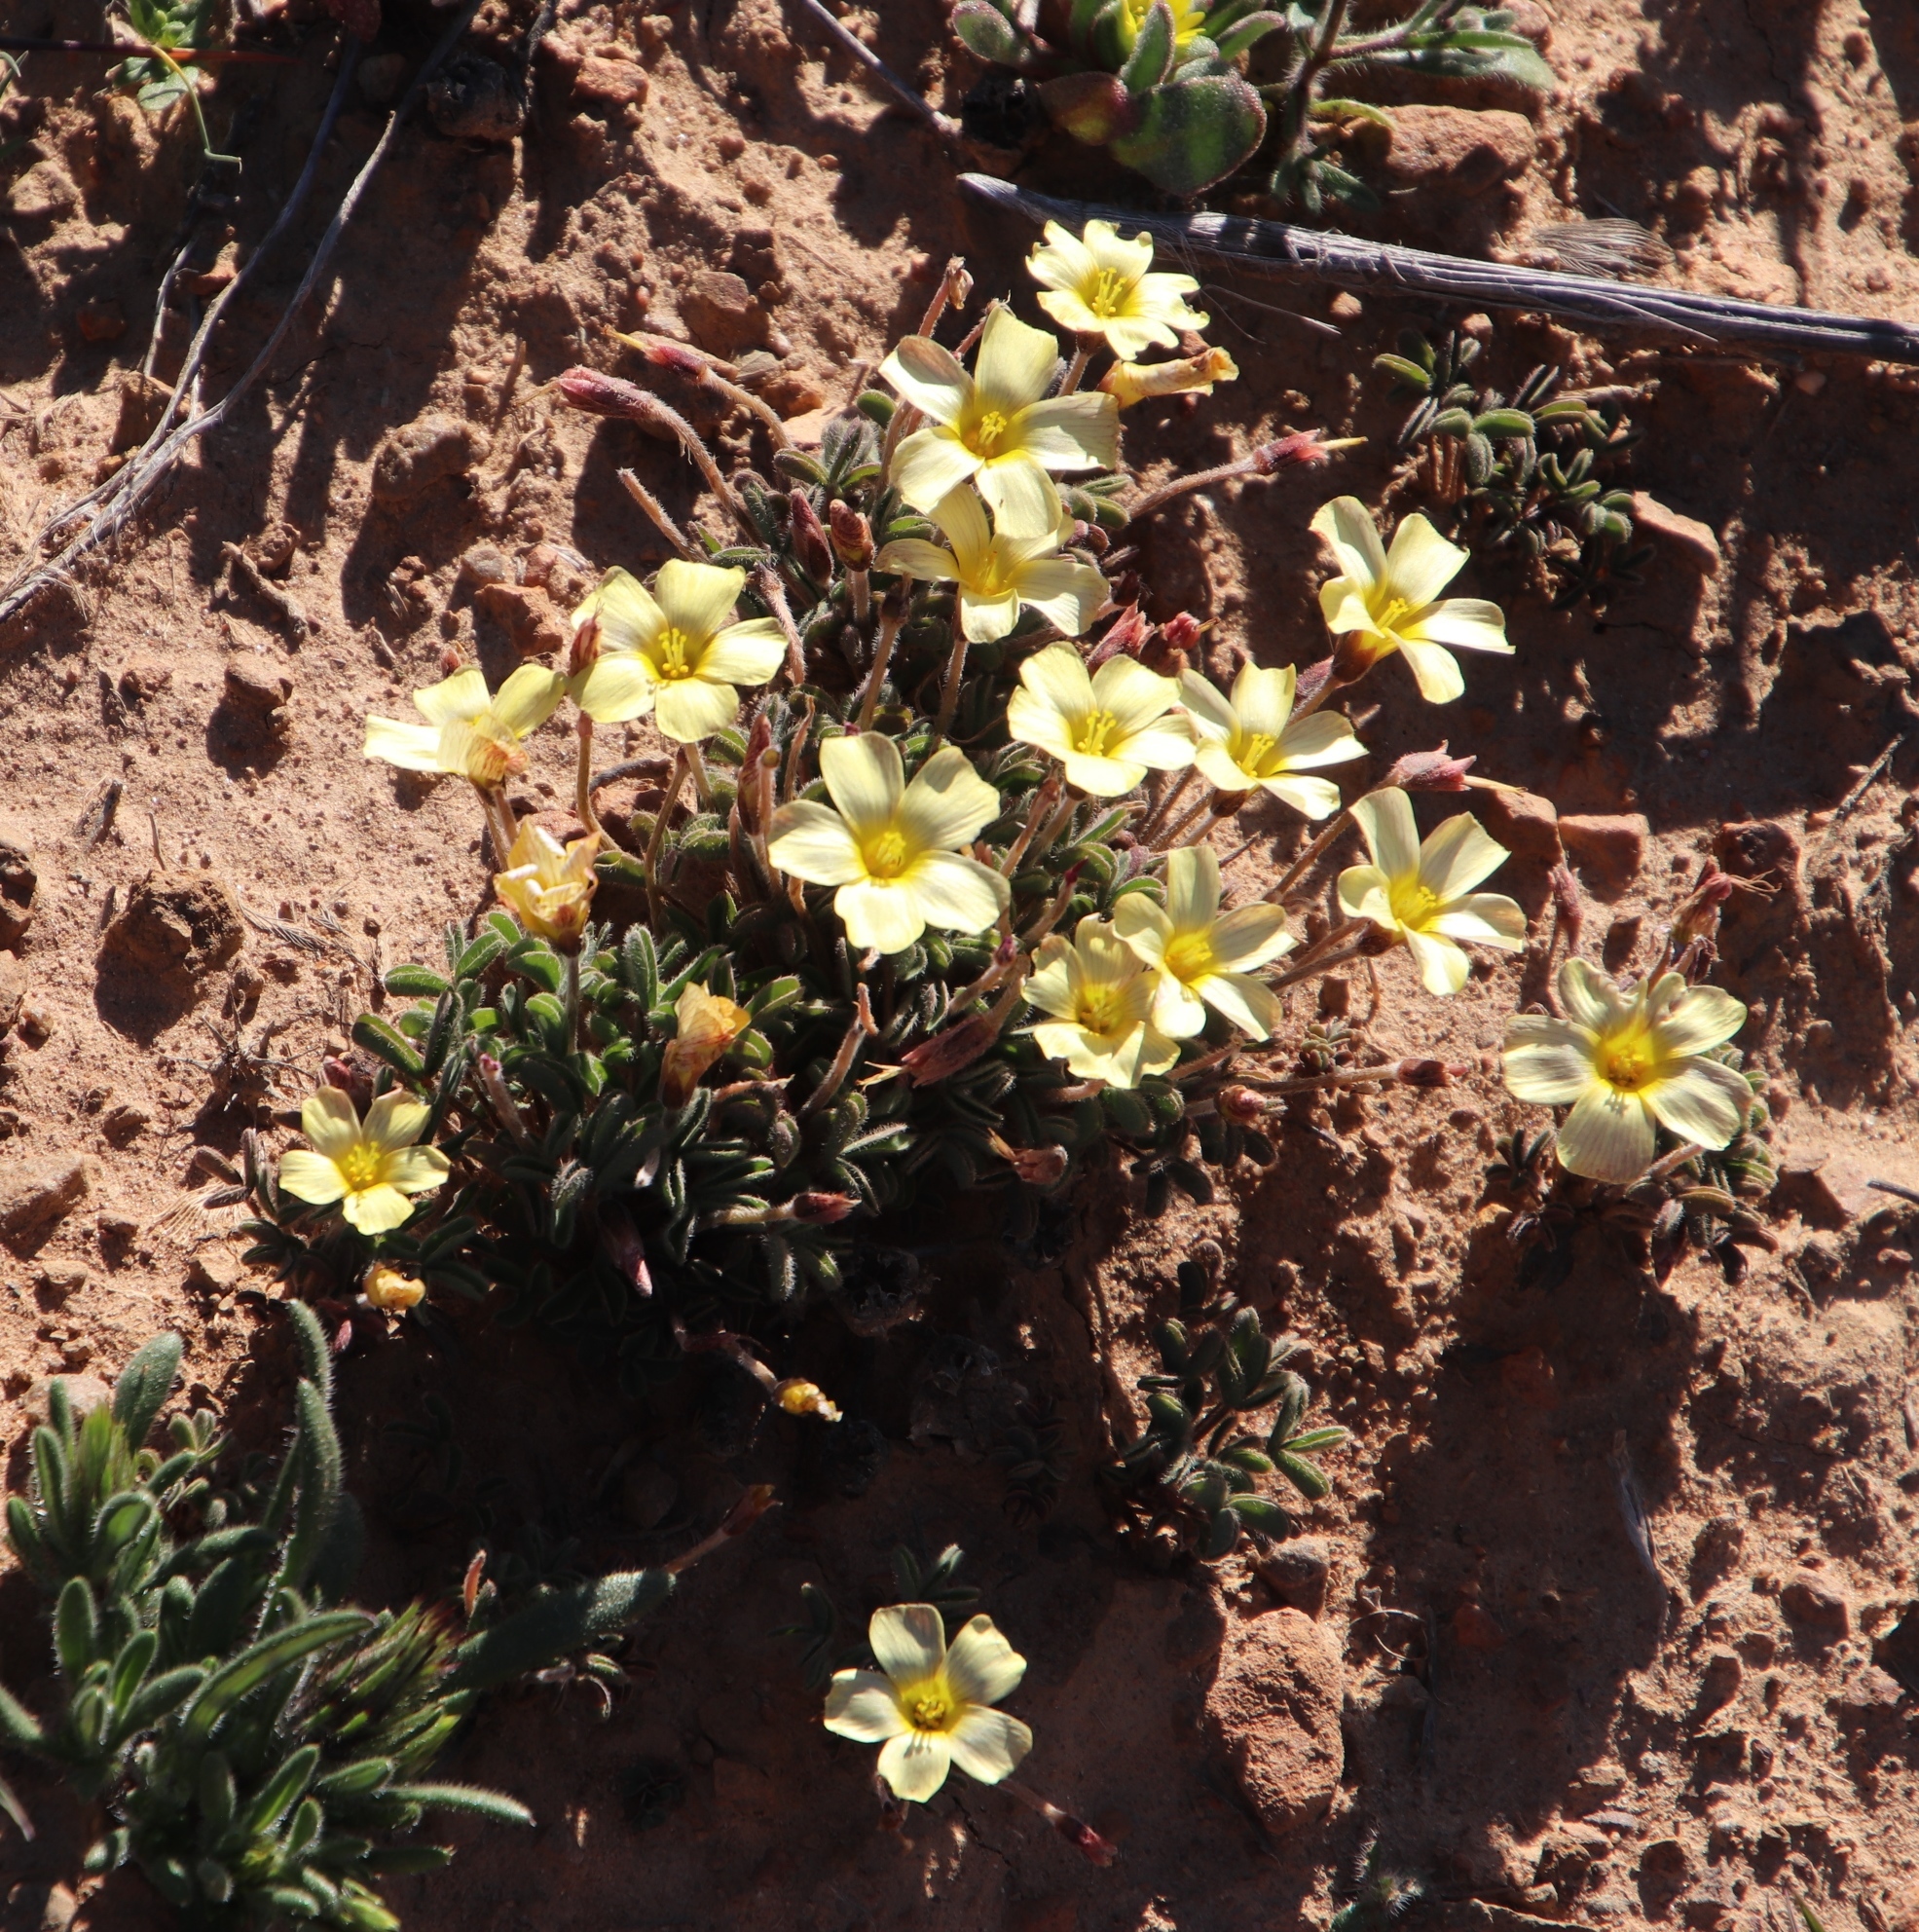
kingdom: Plantae
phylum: Tracheophyta
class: Magnoliopsida
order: Oxalidales
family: Oxalidaceae
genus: Oxalis
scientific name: Oxalis obtusa
